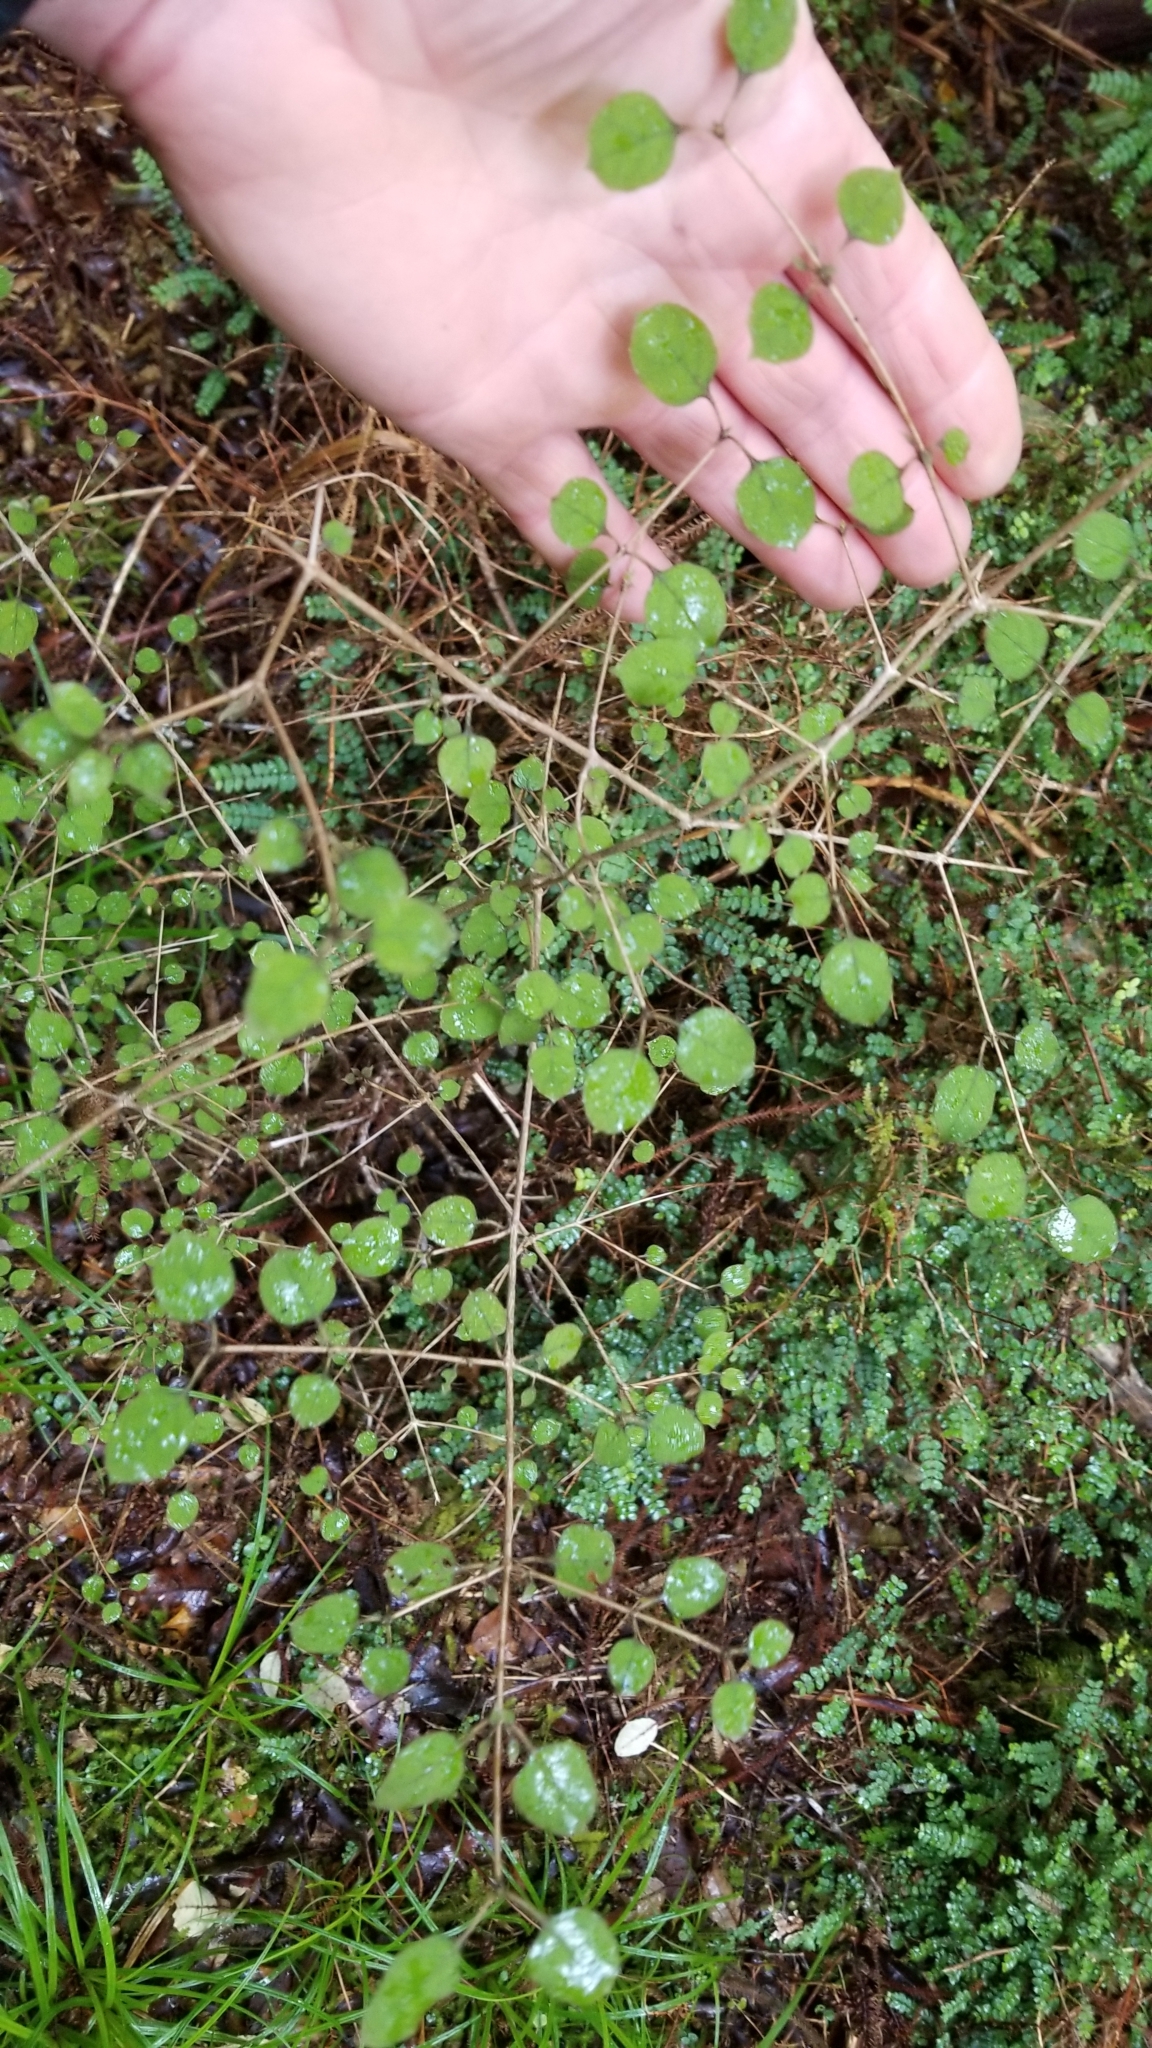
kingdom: Plantae
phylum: Tracheophyta
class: Magnoliopsida
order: Gentianales
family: Rubiaceae
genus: Coprosma
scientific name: Coprosma rotundifolia
